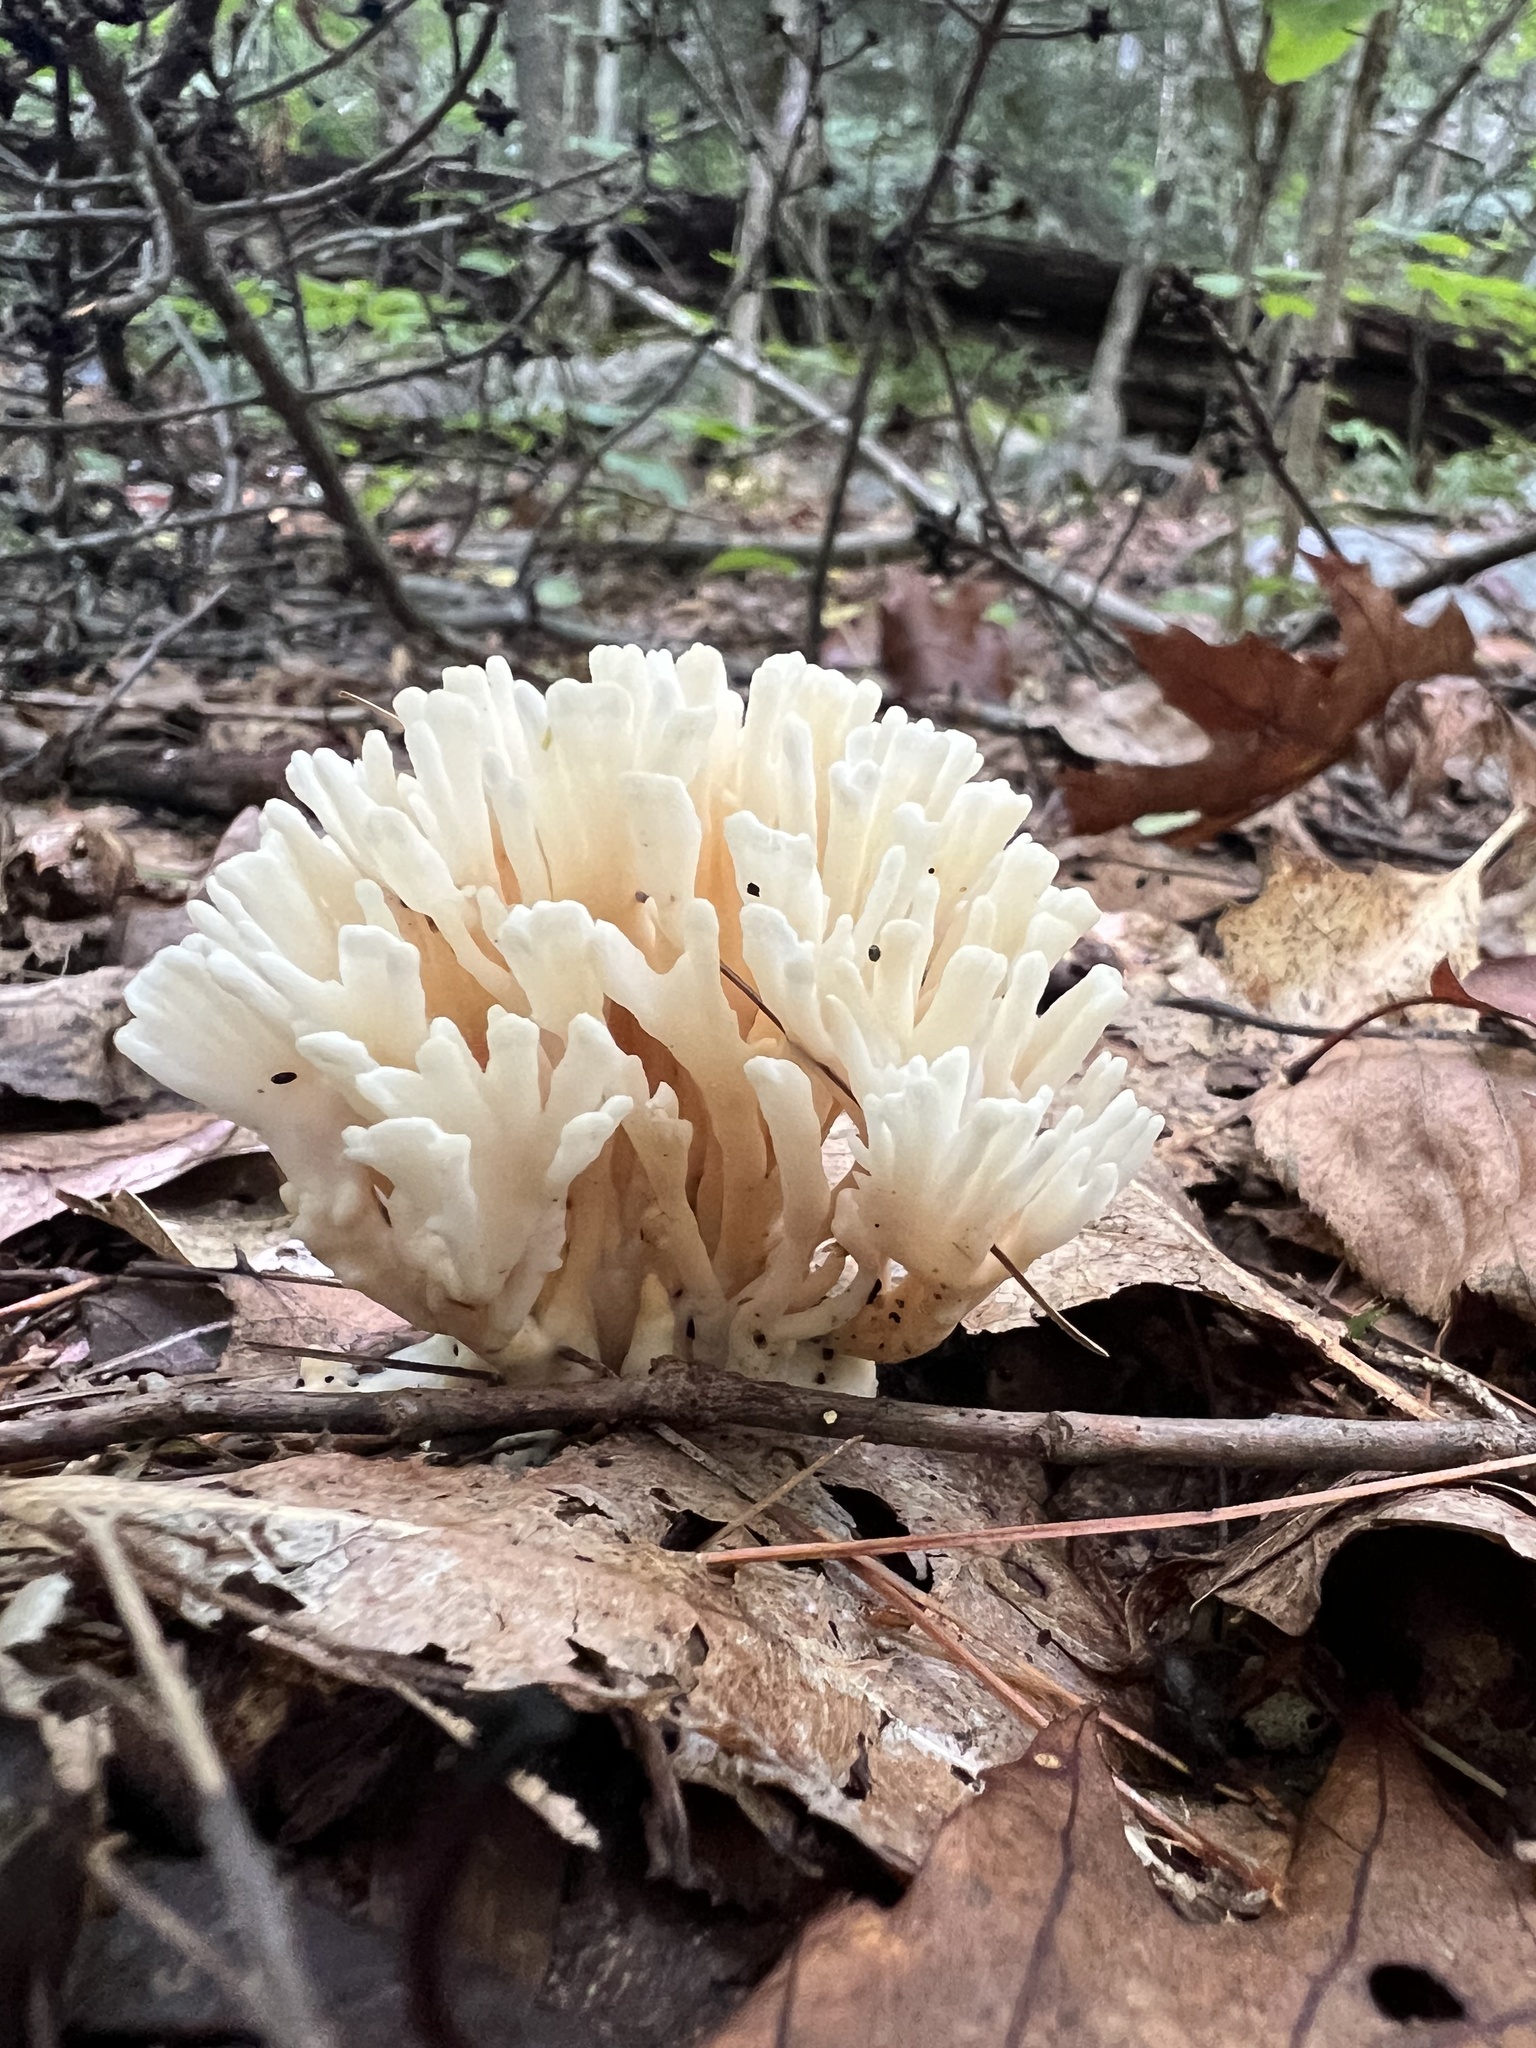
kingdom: Fungi
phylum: Basidiomycota
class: Agaricomycetes
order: Sebacinales
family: Sebacinaceae
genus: Sebacina
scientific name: Sebacina schweinitzii
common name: Jellied false coral fungus
